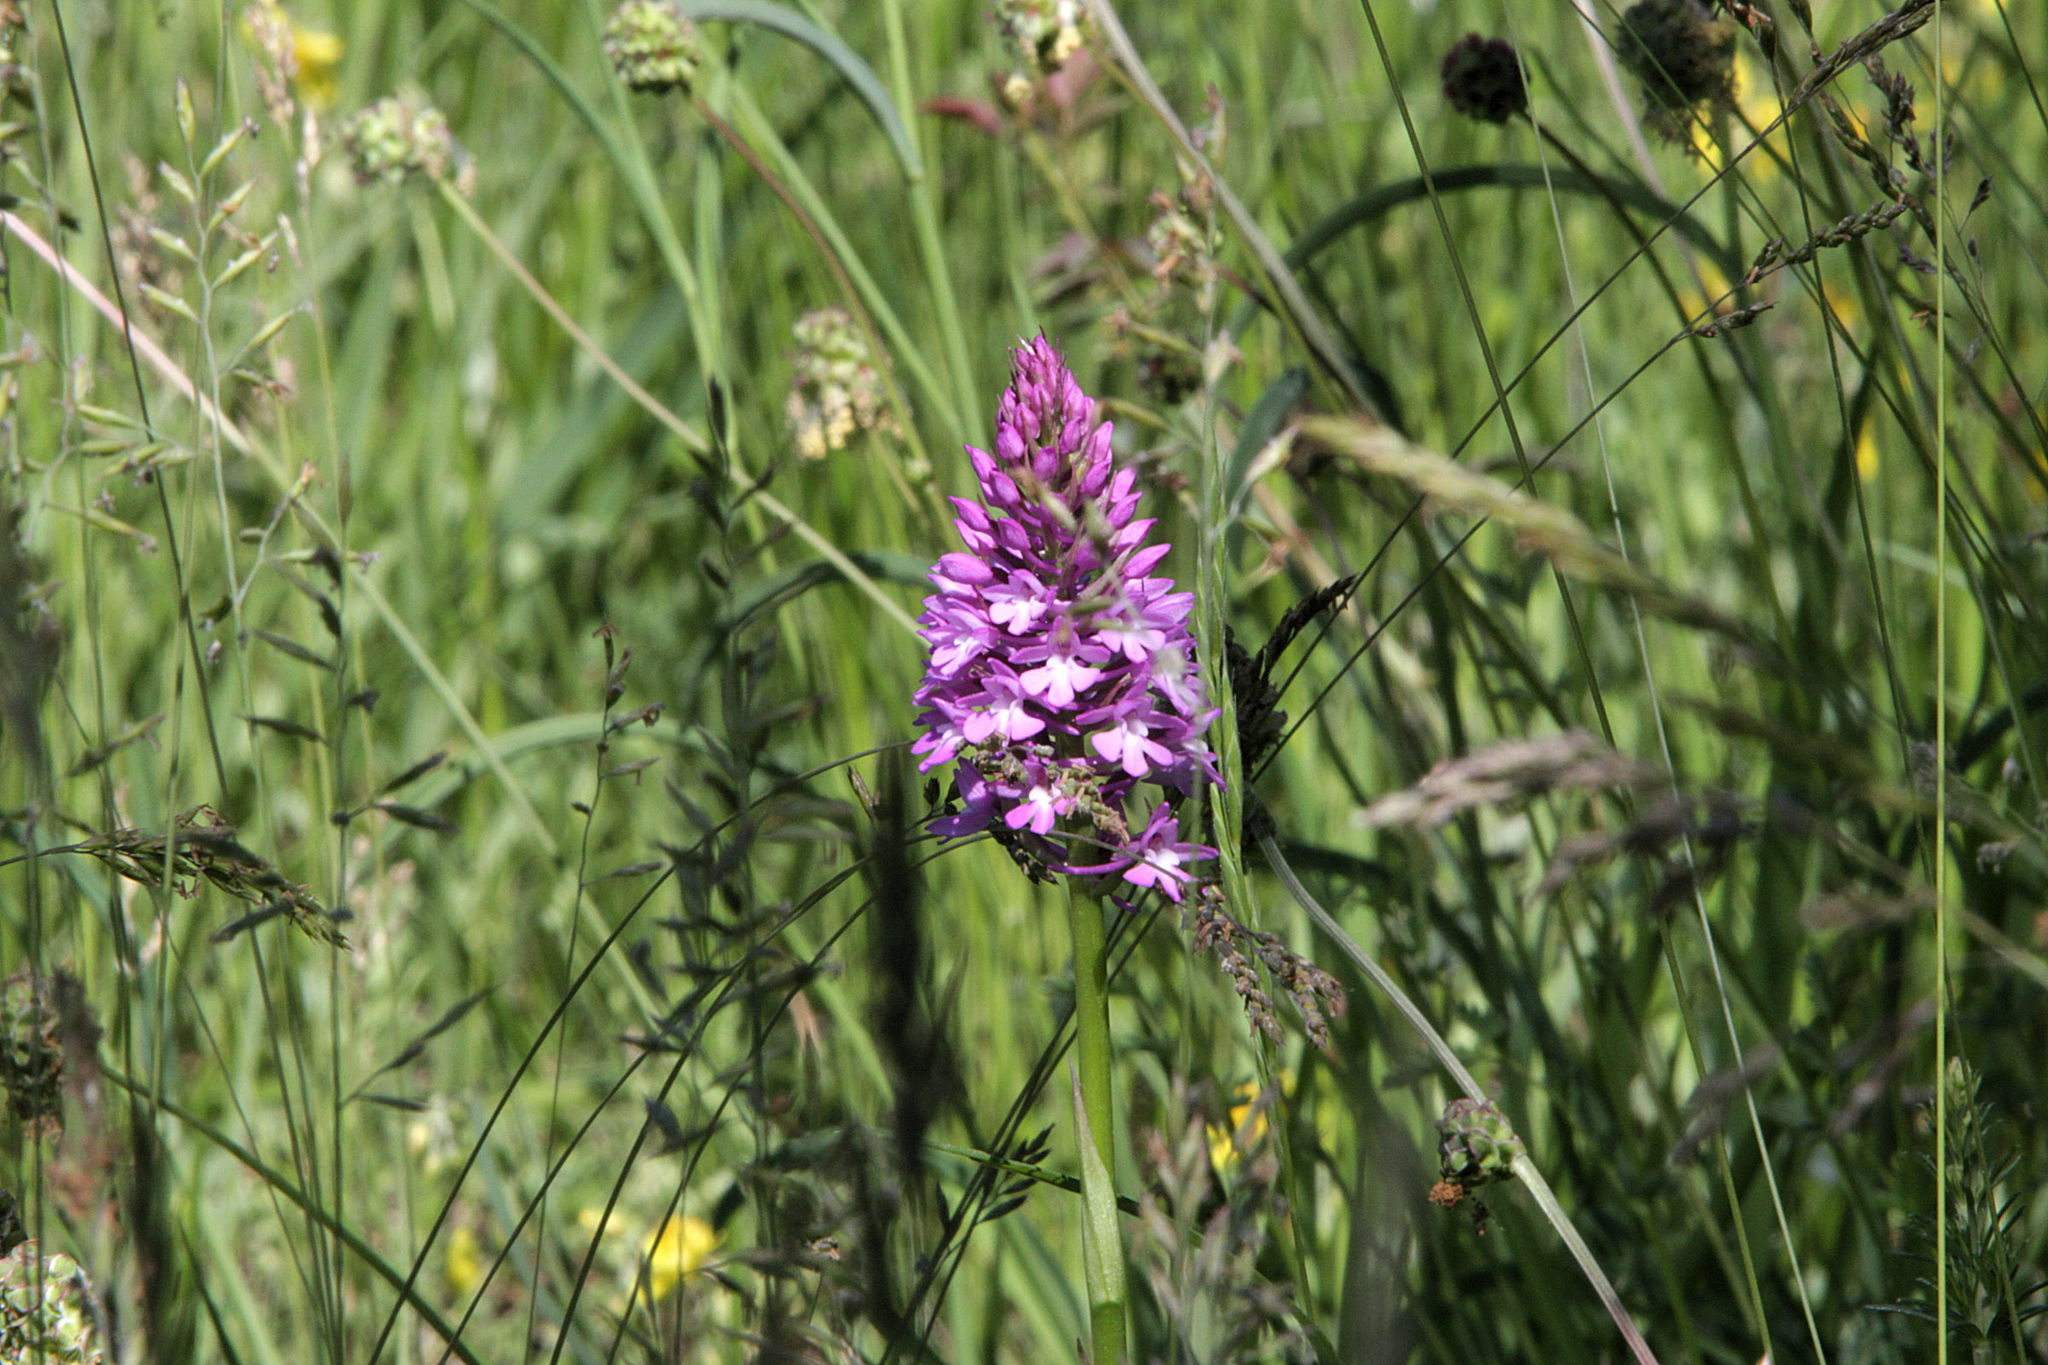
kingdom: Plantae
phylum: Tracheophyta
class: Liliopsida
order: Asparagales
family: Orchidaceae
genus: Anacamptis
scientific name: Anacamptis pyramidalis
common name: Pyramidal orchid
